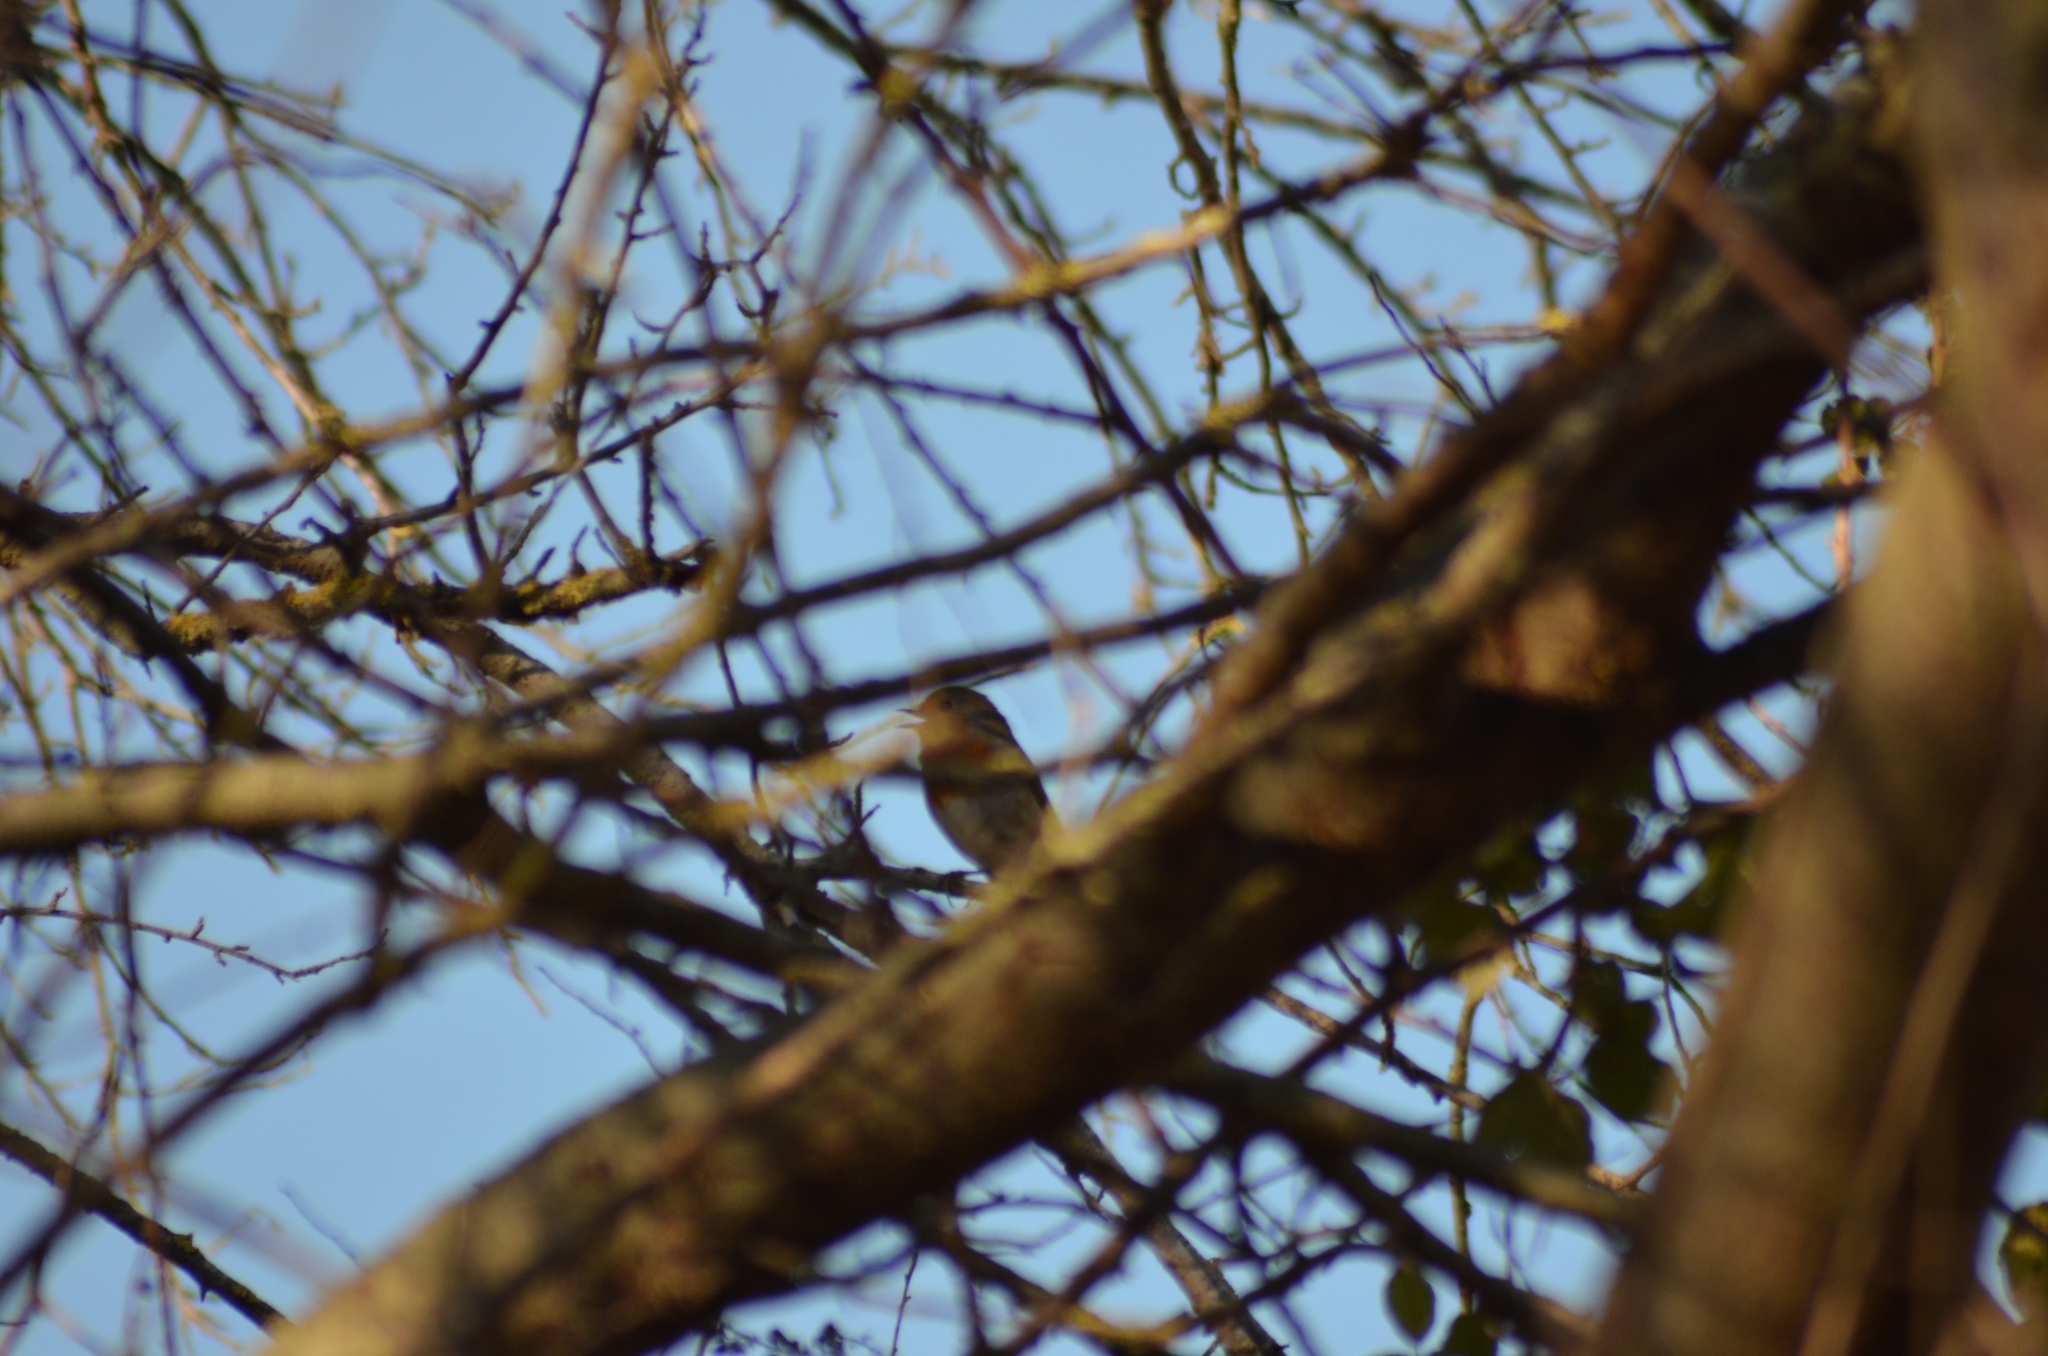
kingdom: Animalia
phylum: Chordata
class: Aves
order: Passeriformes
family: Muscicapidae
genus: Erithacus
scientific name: Erithacus rubecula
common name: European robin
